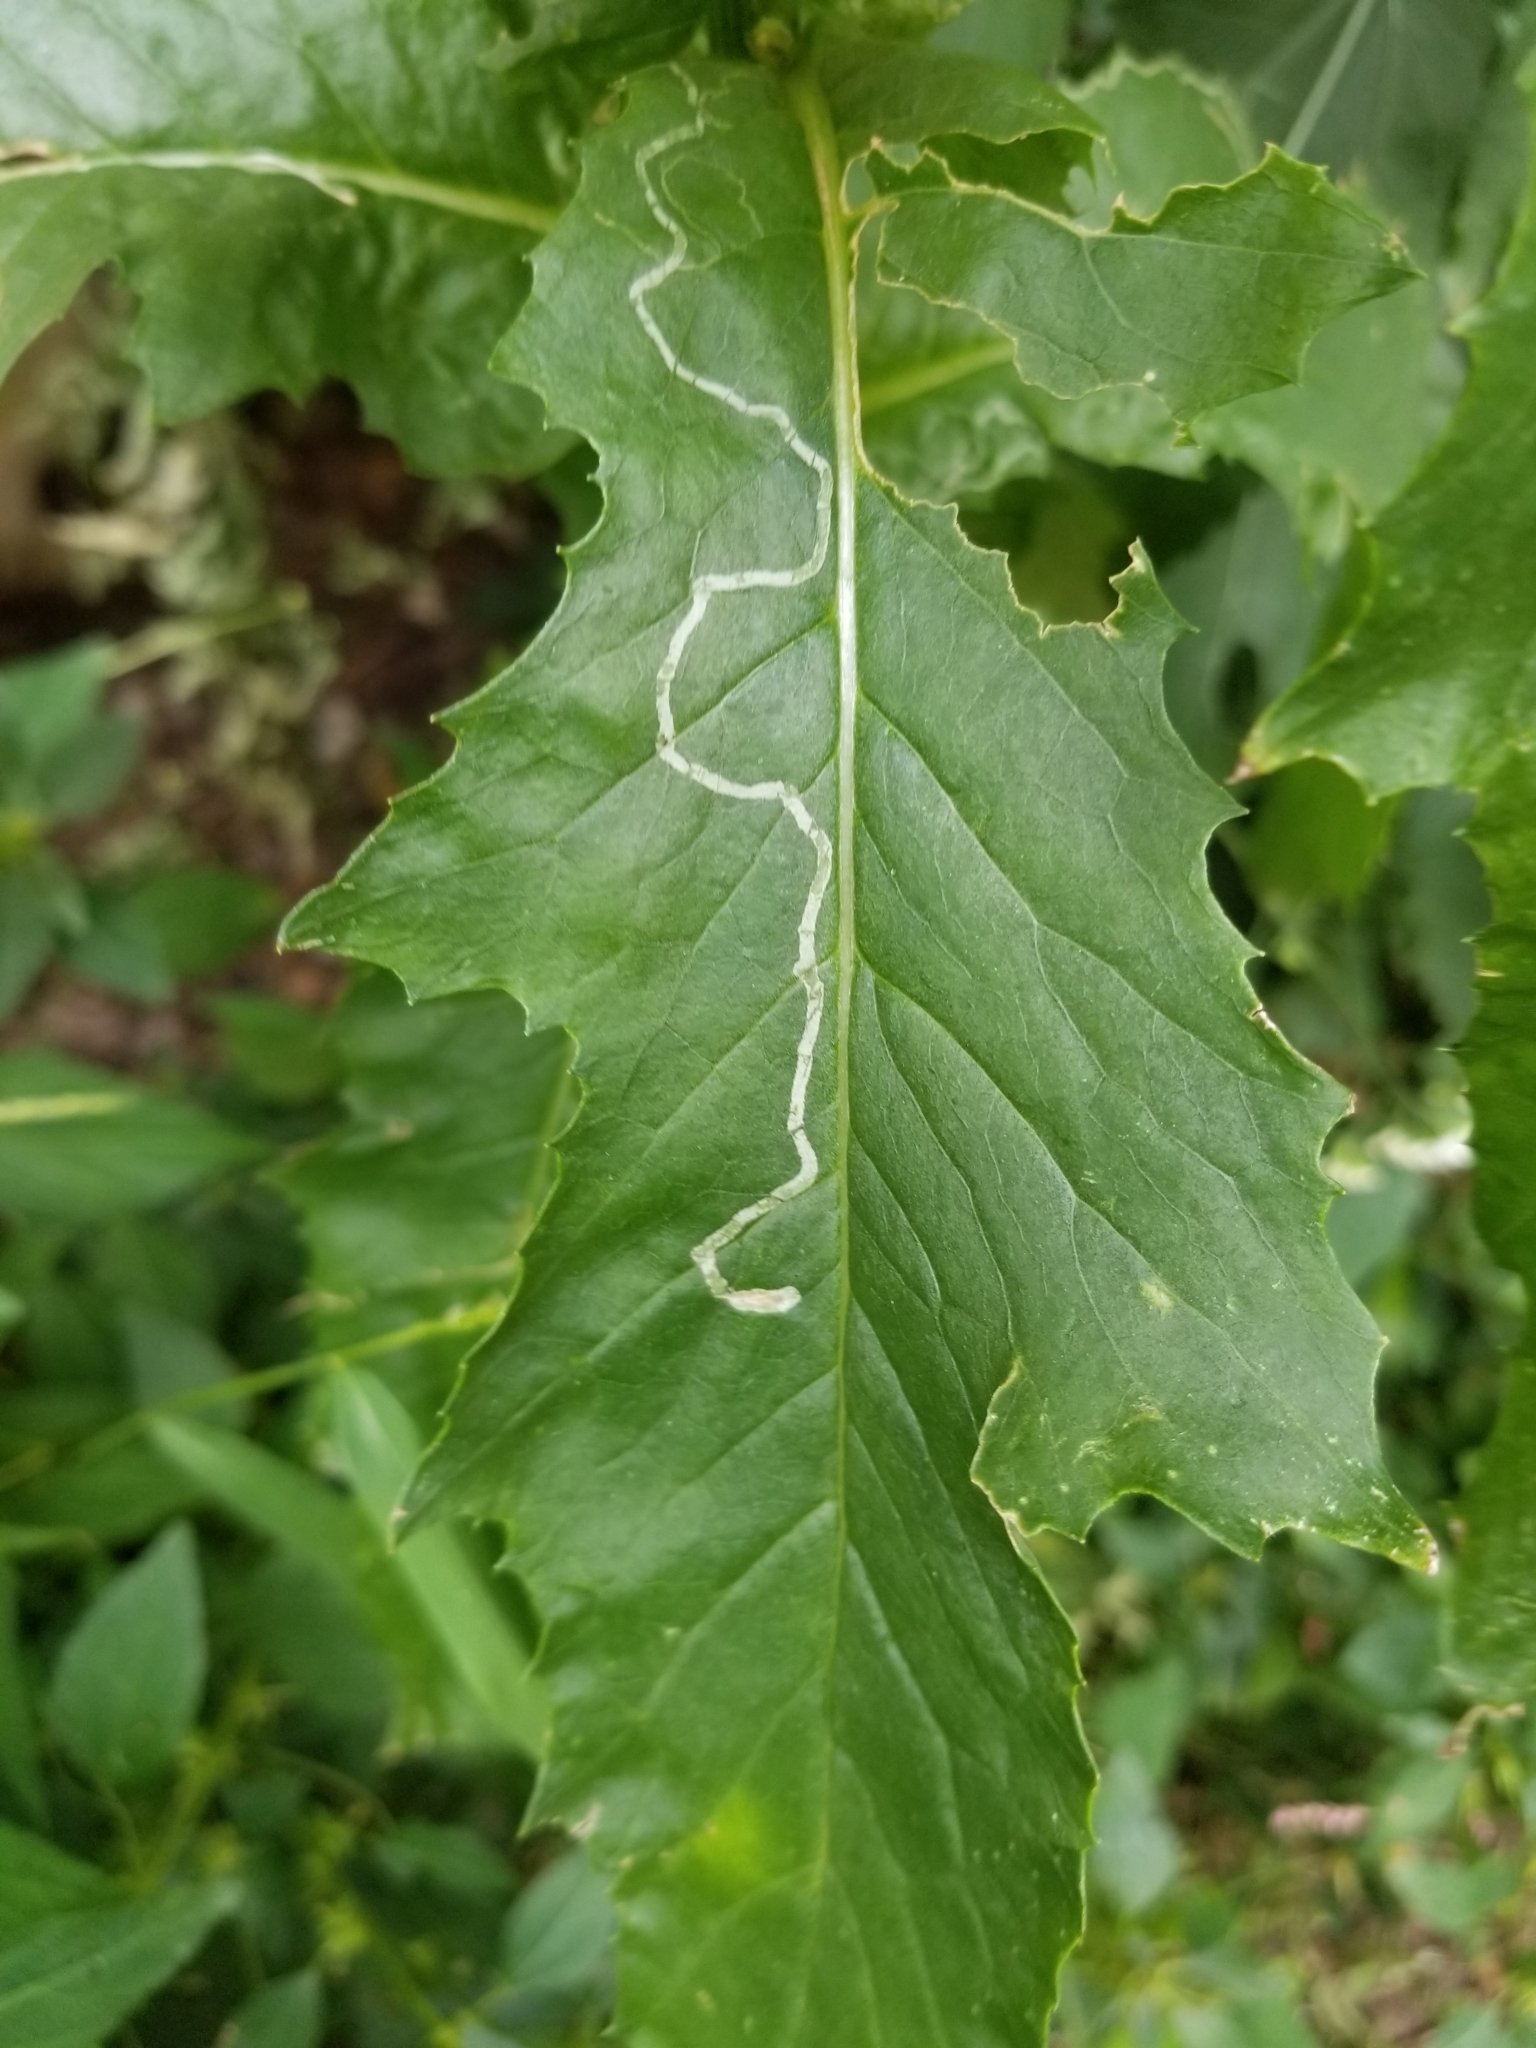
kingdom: Animalia
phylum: Arthropoda
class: Insecta
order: Lepidoptera
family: Gracillariidae
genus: Phyllocnistis
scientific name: Phyllocnistis insignis
